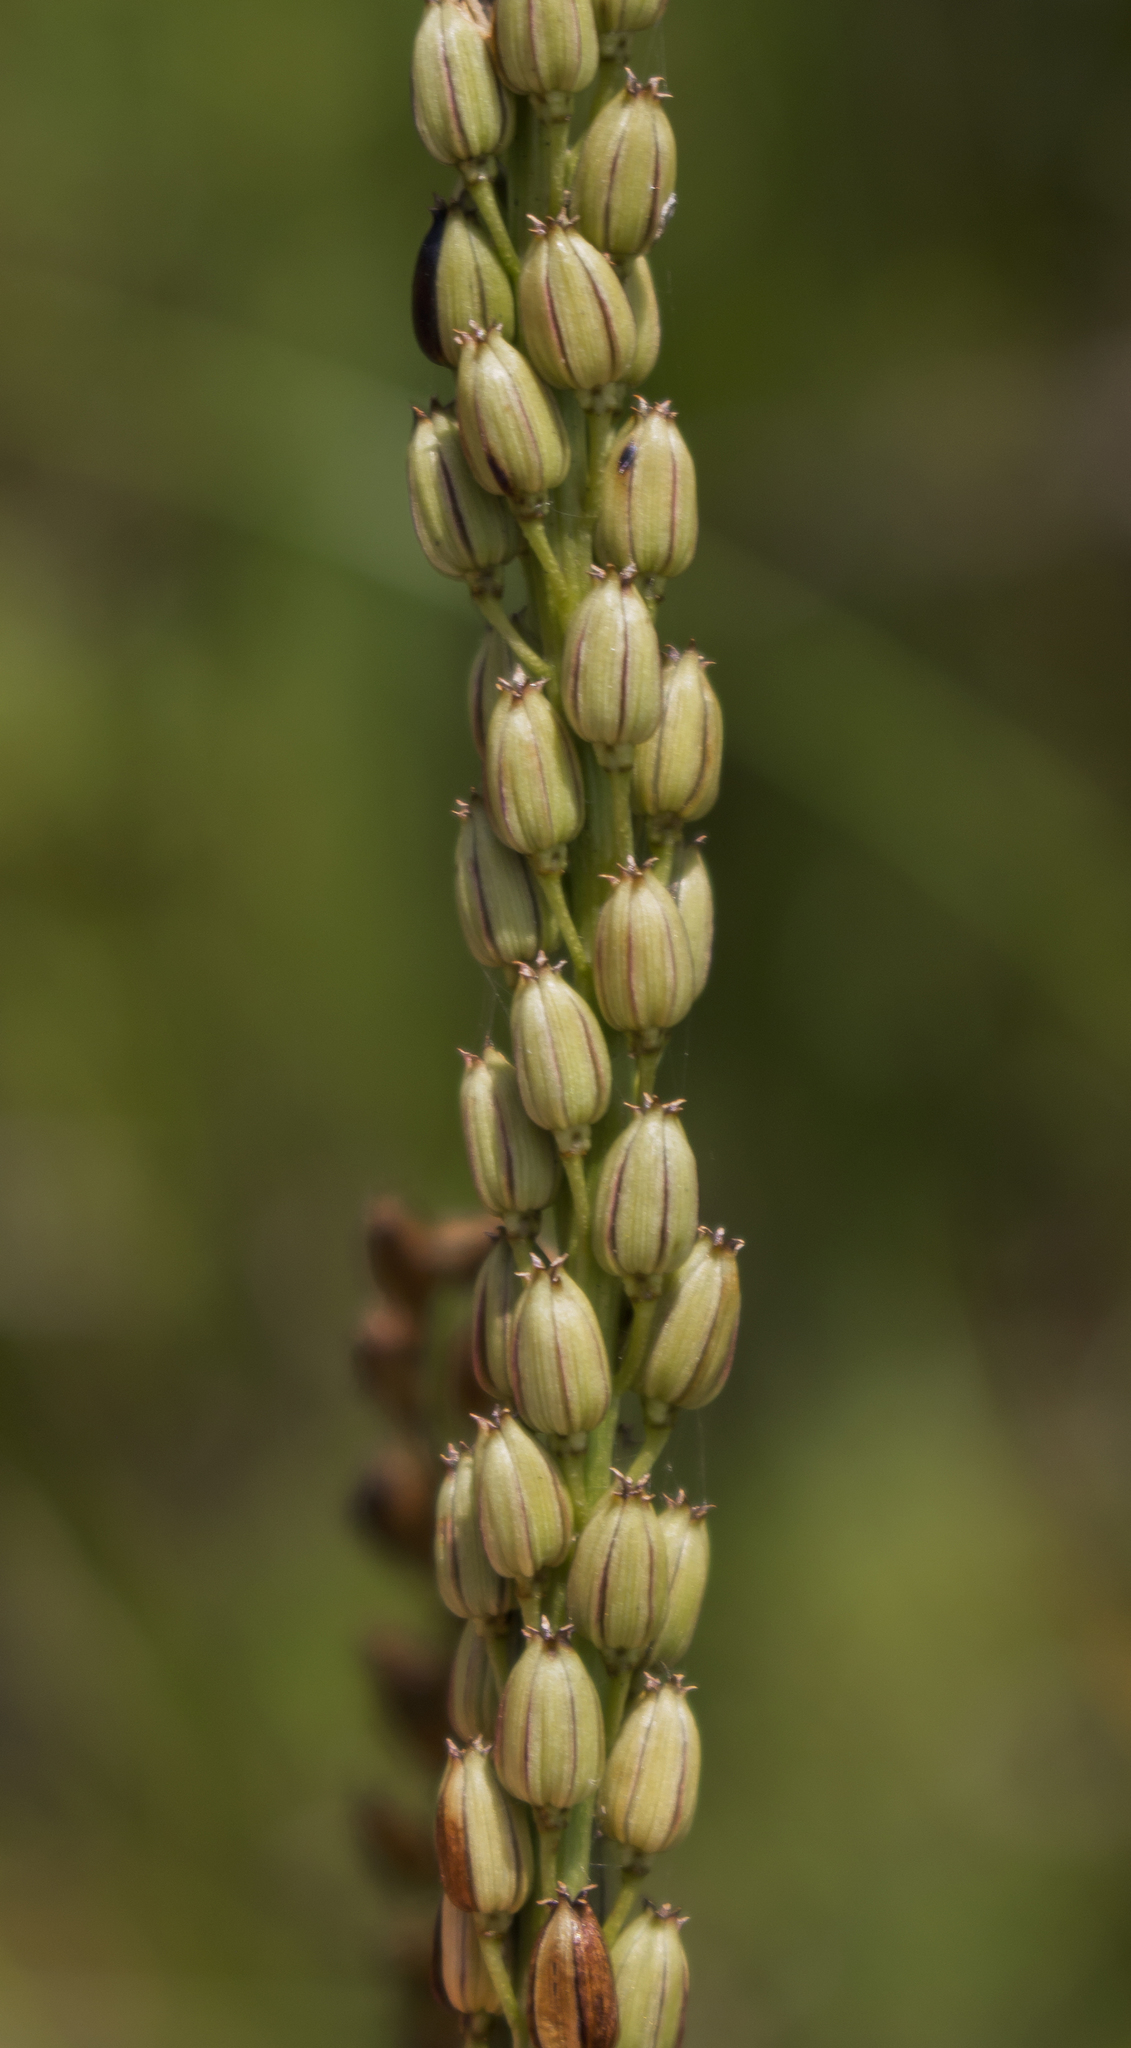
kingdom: Plantae
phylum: Tracheophyta
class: Liliopsida
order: Alismatales
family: Juncaginaceae
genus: Triglochin
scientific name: Triglochin maritima
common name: Sea arrowgrass
